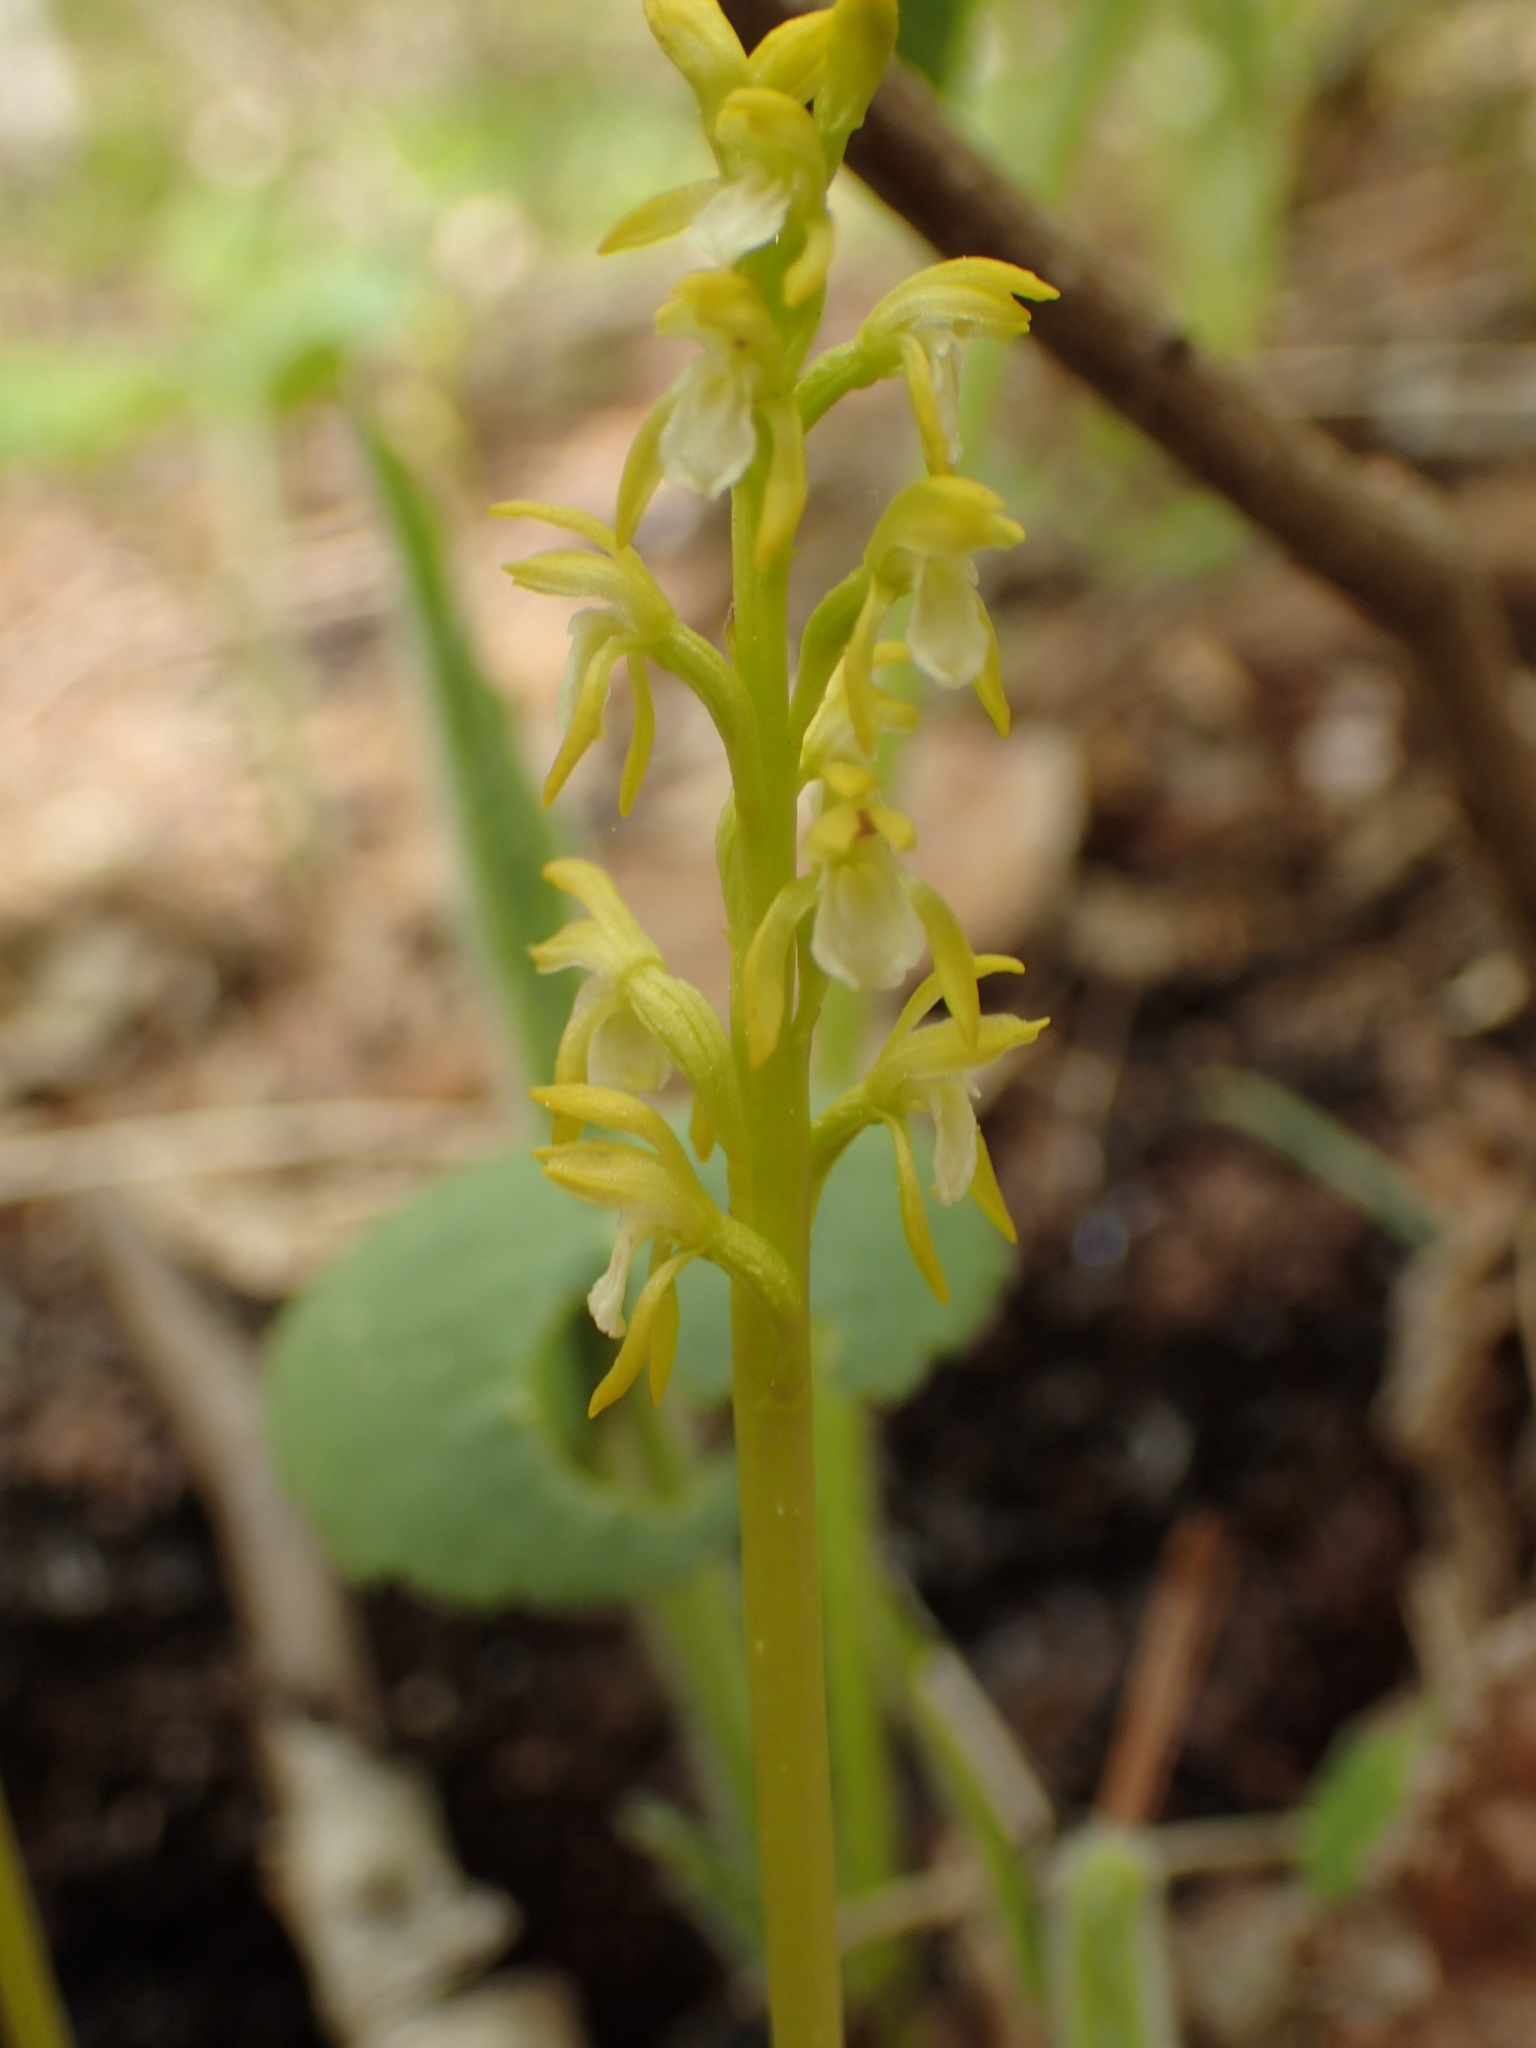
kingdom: Plantae
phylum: Tracheophyta
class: Liliopsida
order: Asparagales
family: Orchidaceae
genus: Corallorhiza
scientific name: Corallorhiza trifida
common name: Yellow coralroot
